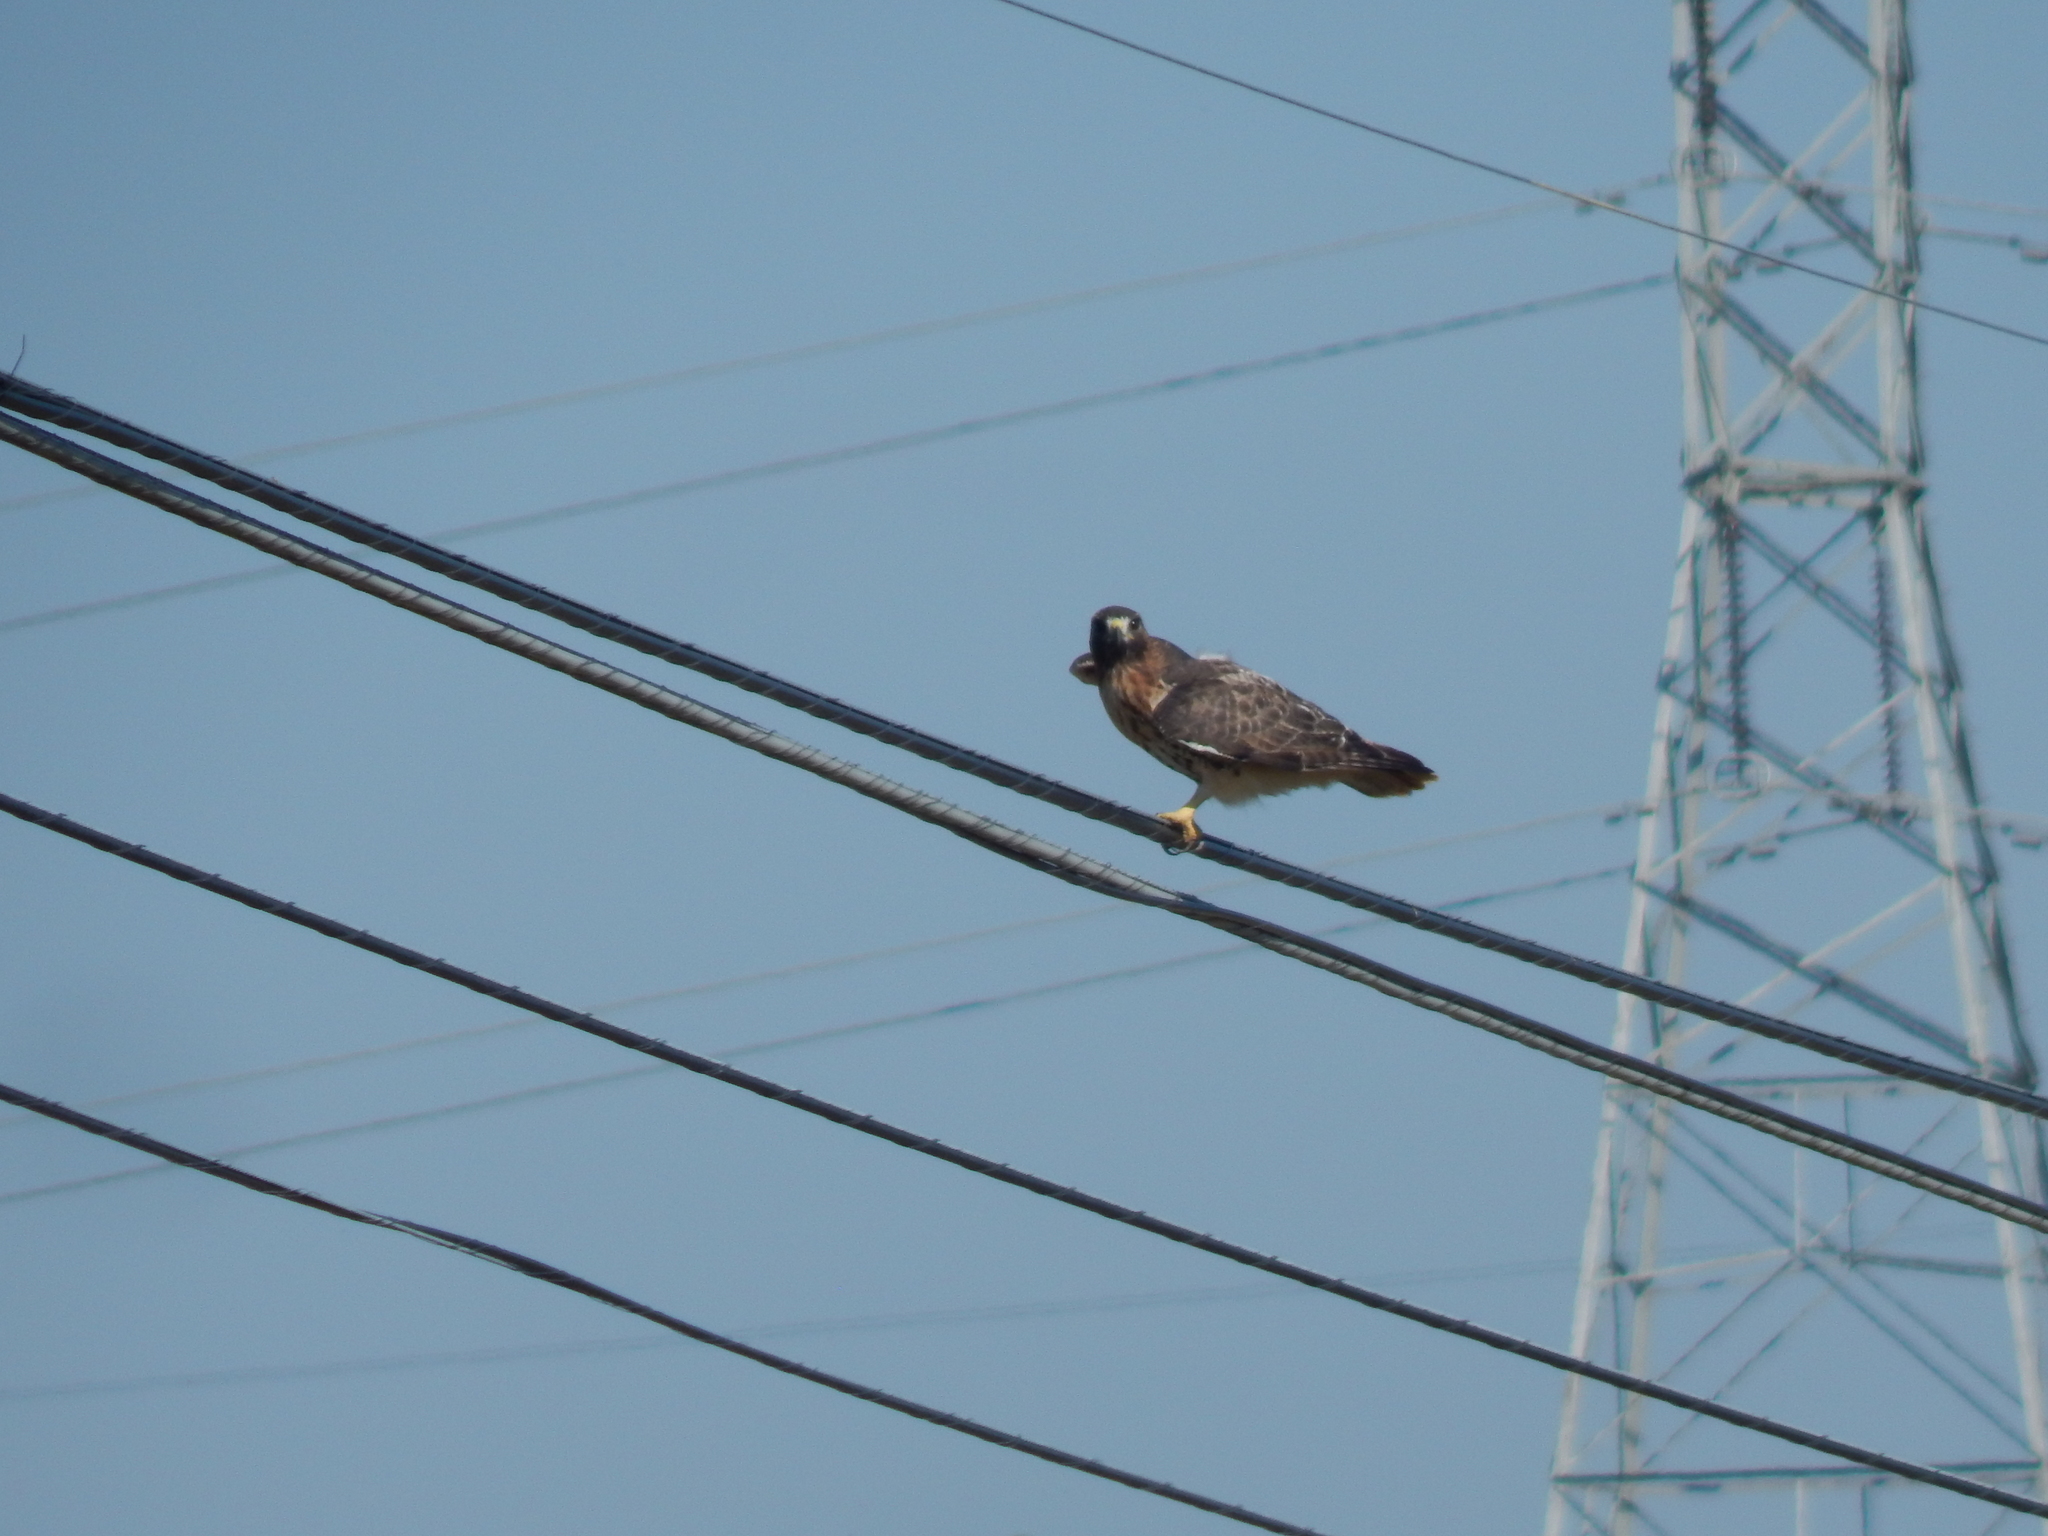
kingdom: Animalia
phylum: Chordata
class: Aves
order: Accipitriformes
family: Accipitridae
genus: Buteo
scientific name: Buteo jamaicensis
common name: Red-tailed hawk
